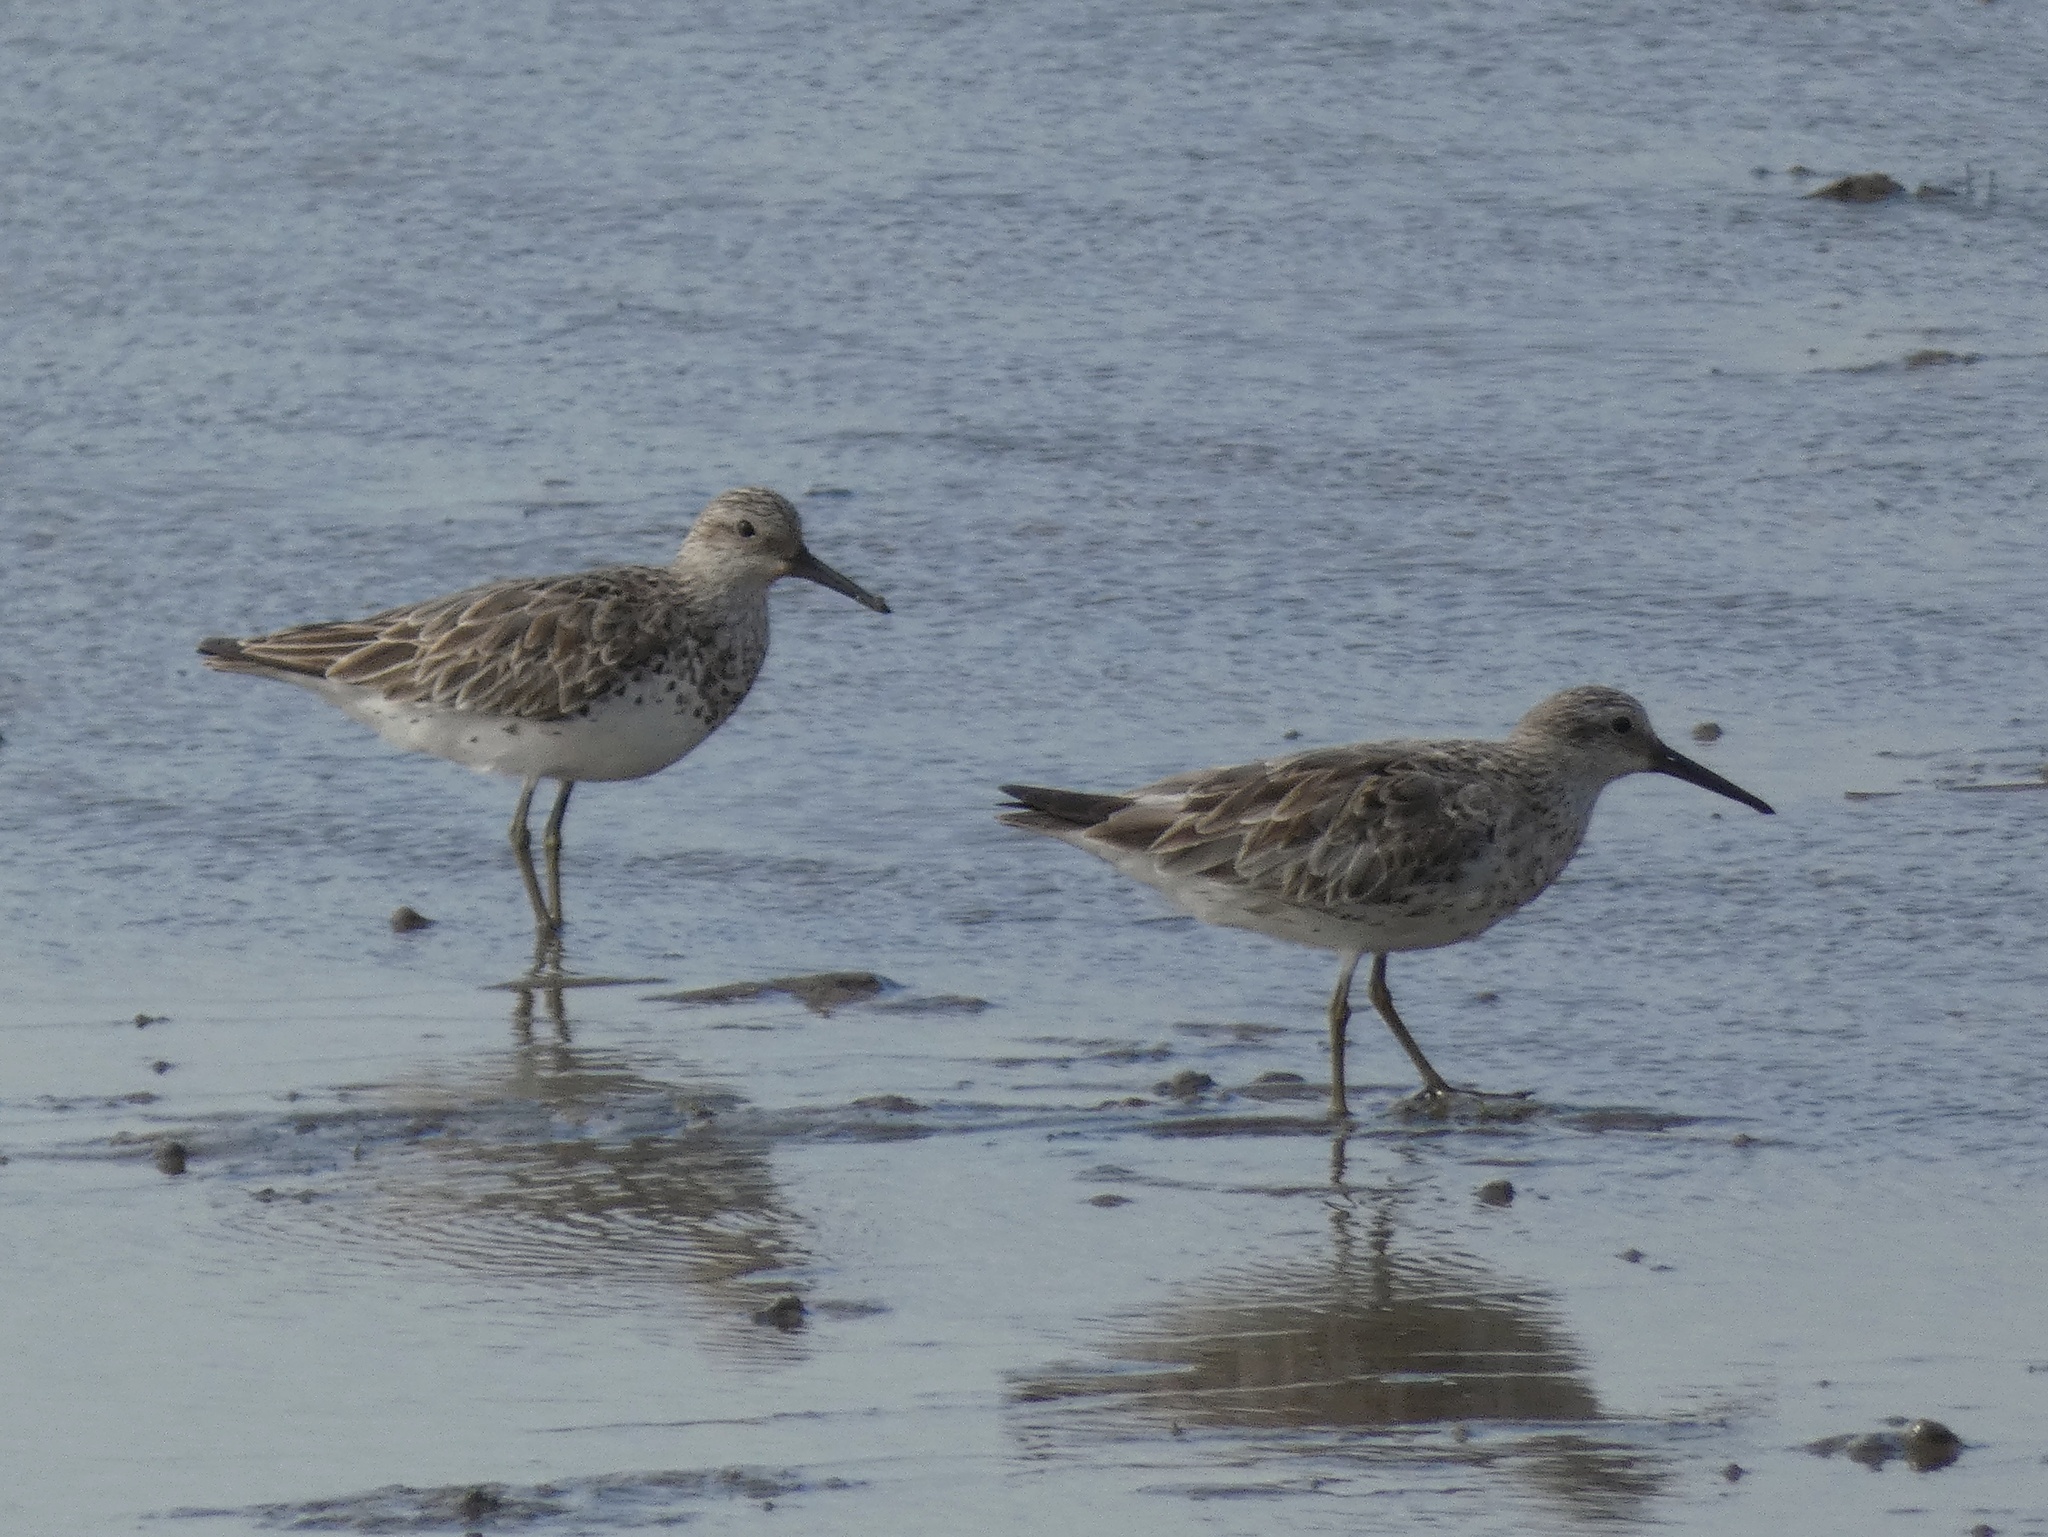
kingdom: Animalia
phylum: Chordata
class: Aves
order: Charadriiformes
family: Scolopacidae
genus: Calidris
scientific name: Calidris tenuirostris
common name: Great knot
